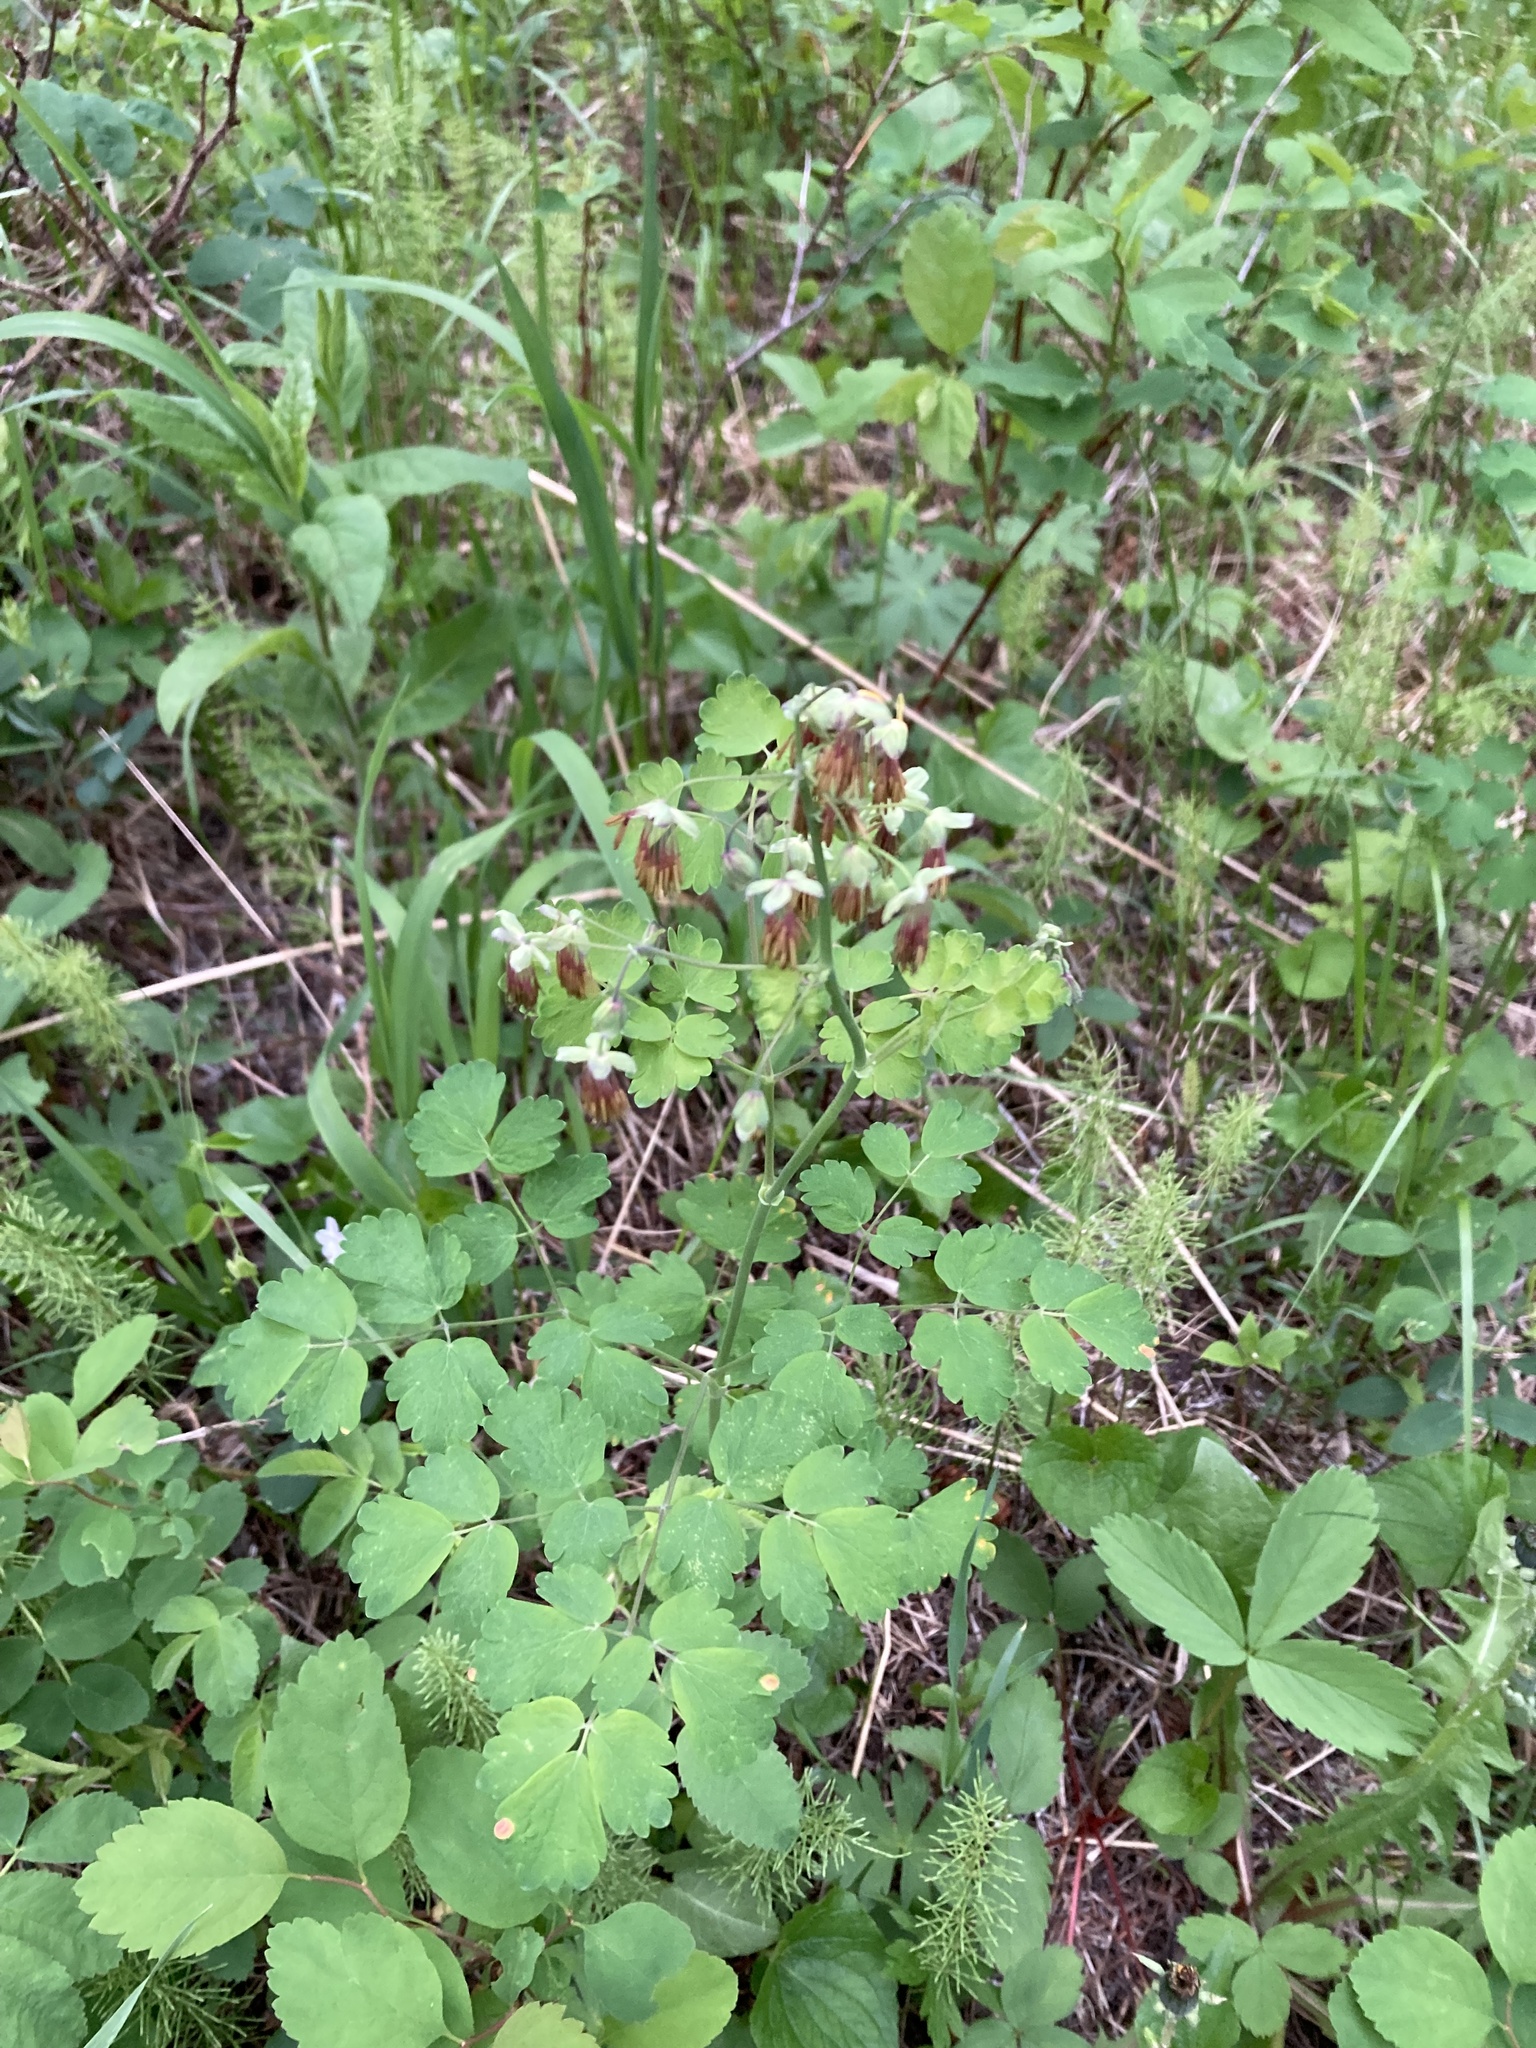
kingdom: Plantae
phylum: Tracheophyta
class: Magnoliopsida
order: Ranunculales
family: Ranunculaceae
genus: Thalictrum
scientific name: Thalictrum occidentale
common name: Western meadow-rue
